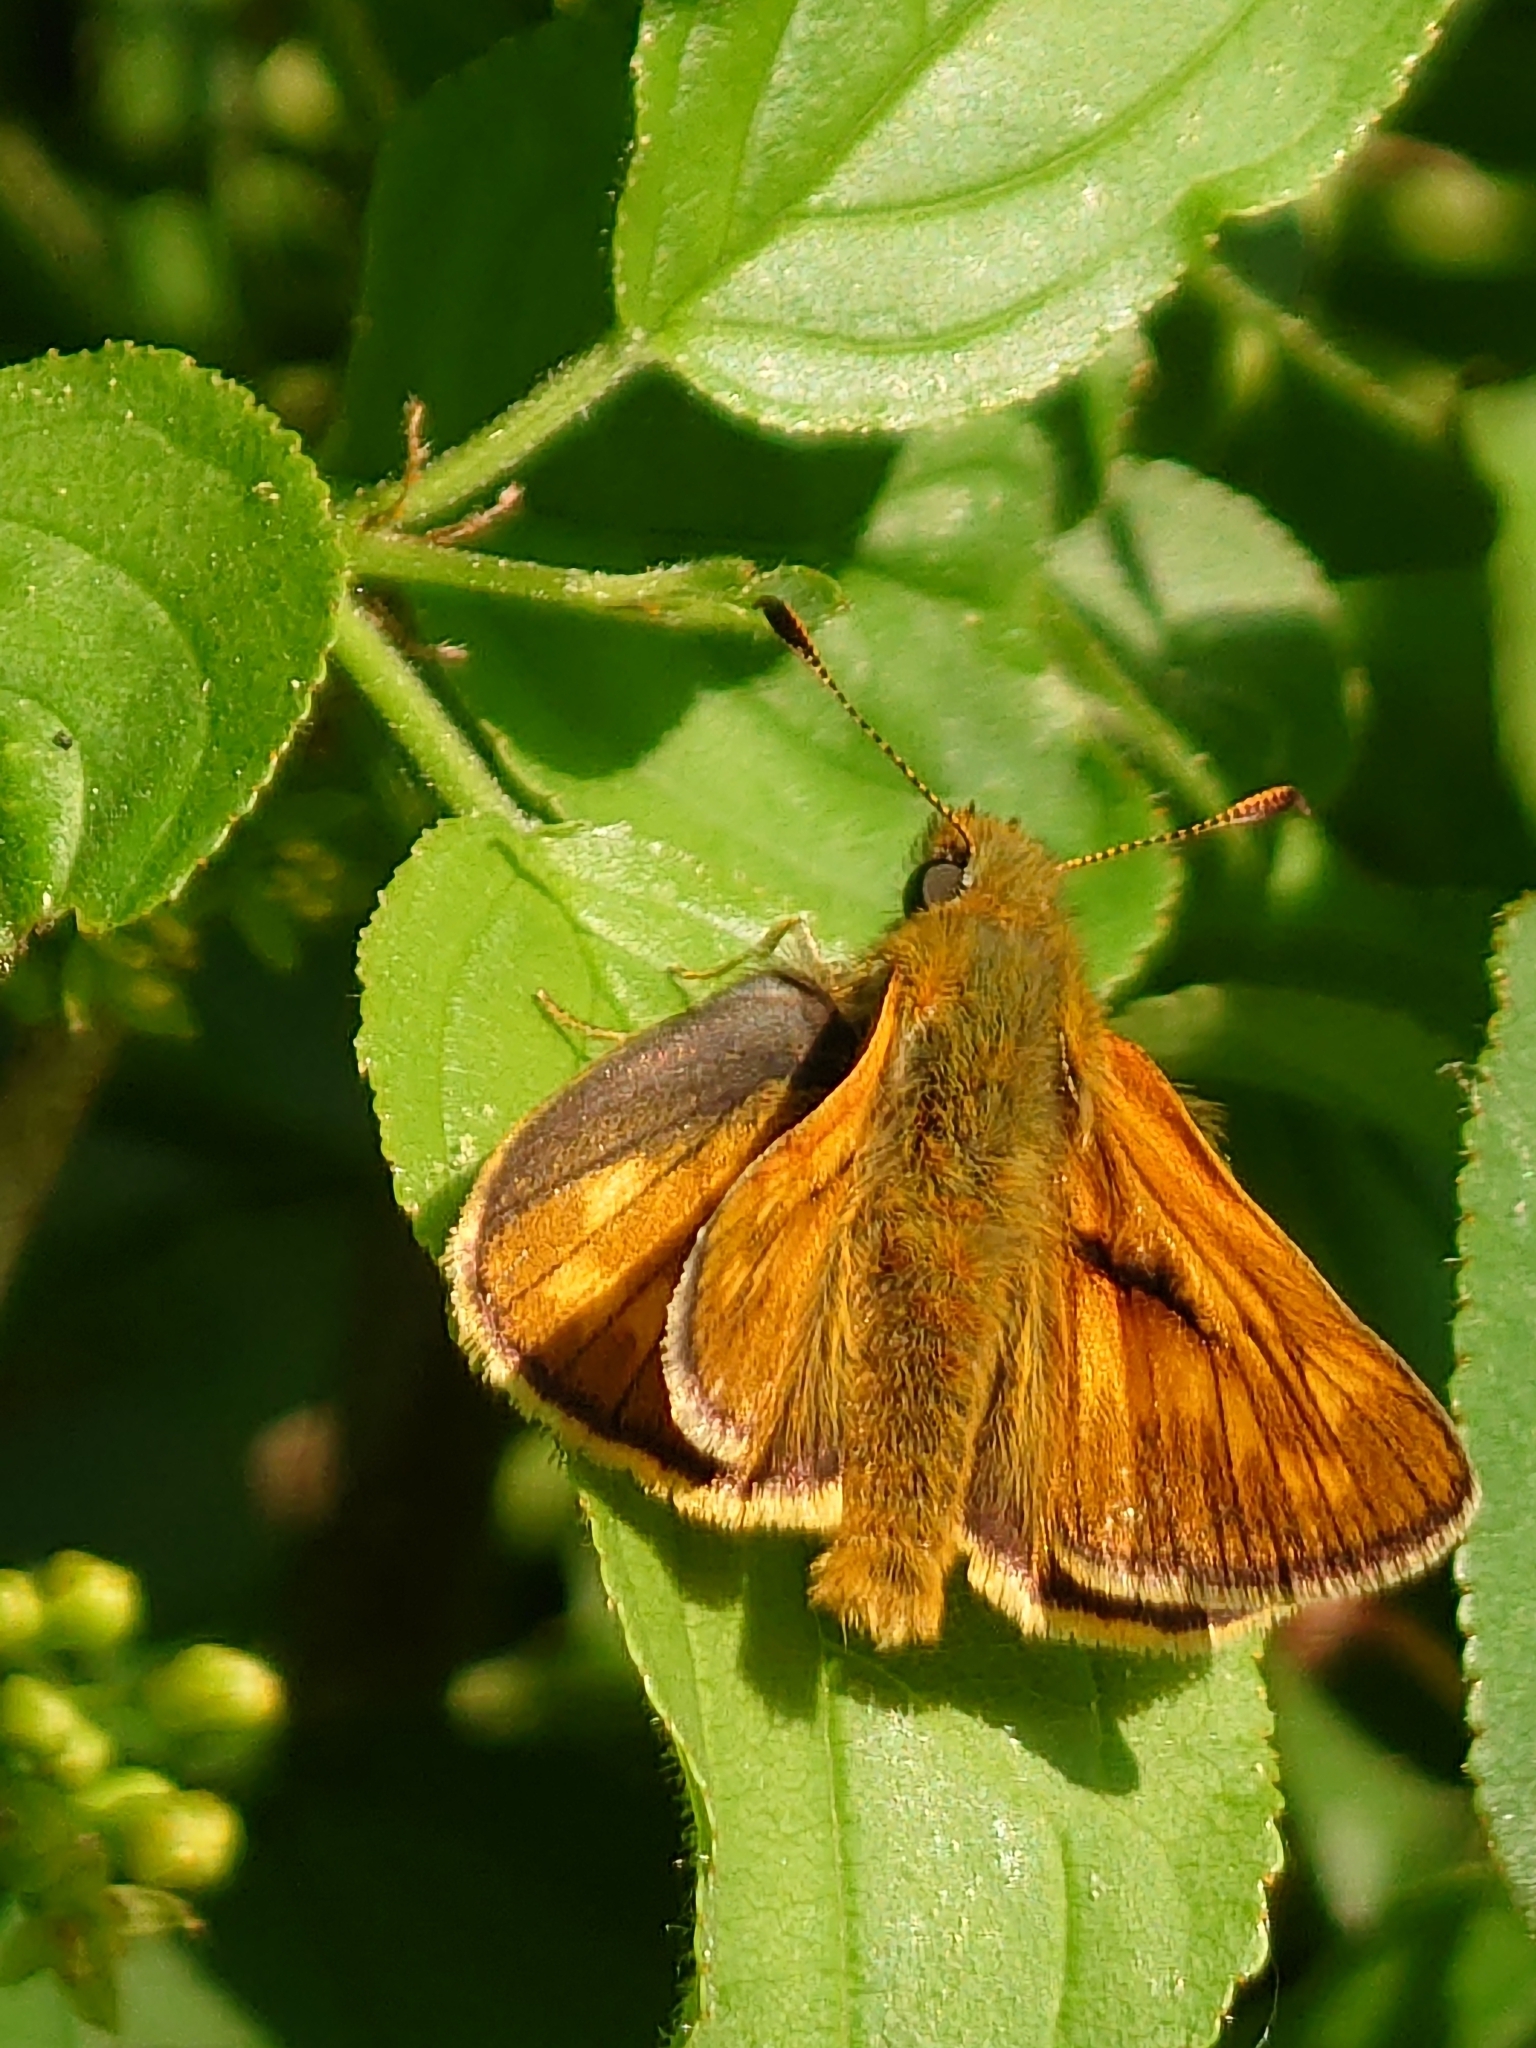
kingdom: Animalia
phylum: Arthropoda
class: Insecta
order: Lepidoptera
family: Hesperiidae
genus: Ochlodes
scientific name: Ochlodes venata
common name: Large skipper
